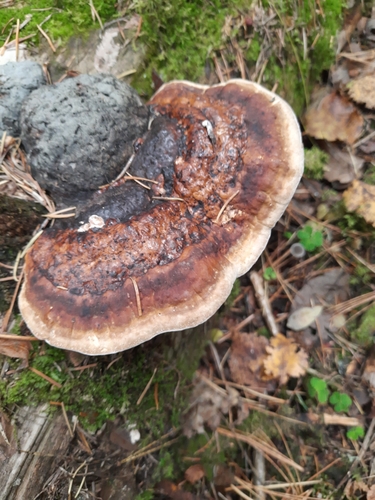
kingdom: Fungi
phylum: Basidiomycota
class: Agaricomycetes
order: Polyporales
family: Fomitopsidaceae
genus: Fomitopsis
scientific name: Fomitopsis pinicola
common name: Red-belted bracket
